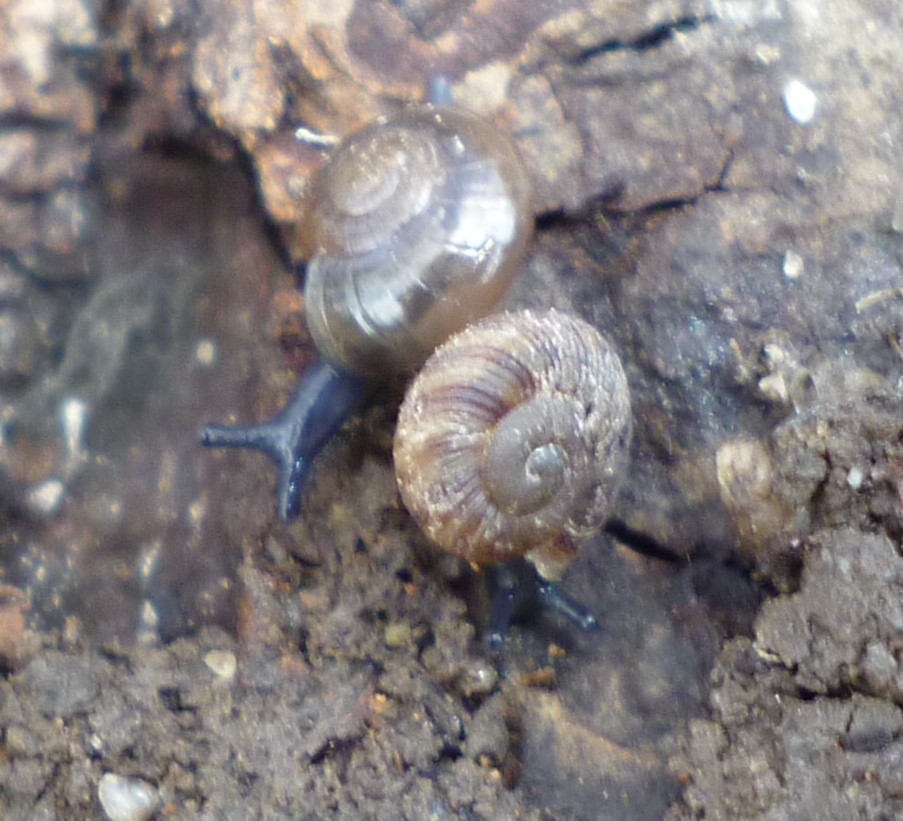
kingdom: Animalia
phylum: Mollusca
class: Gastropoda
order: Stylommatophora
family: Discidae
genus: Anguispira
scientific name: Anguispira alternata
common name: Flamed tigersnail
